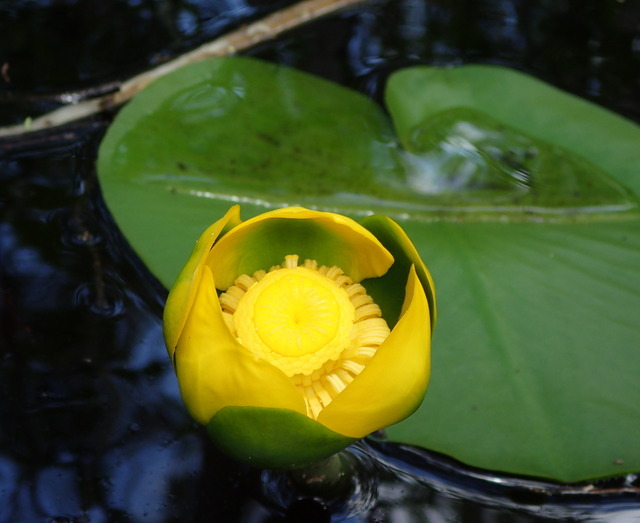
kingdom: Plantae
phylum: Tracheophyta
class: Magnoliopsida
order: Nymphaeales
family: Nymphaeaceae
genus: Nuphar
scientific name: Nuphar advena
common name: Spatter-dock
